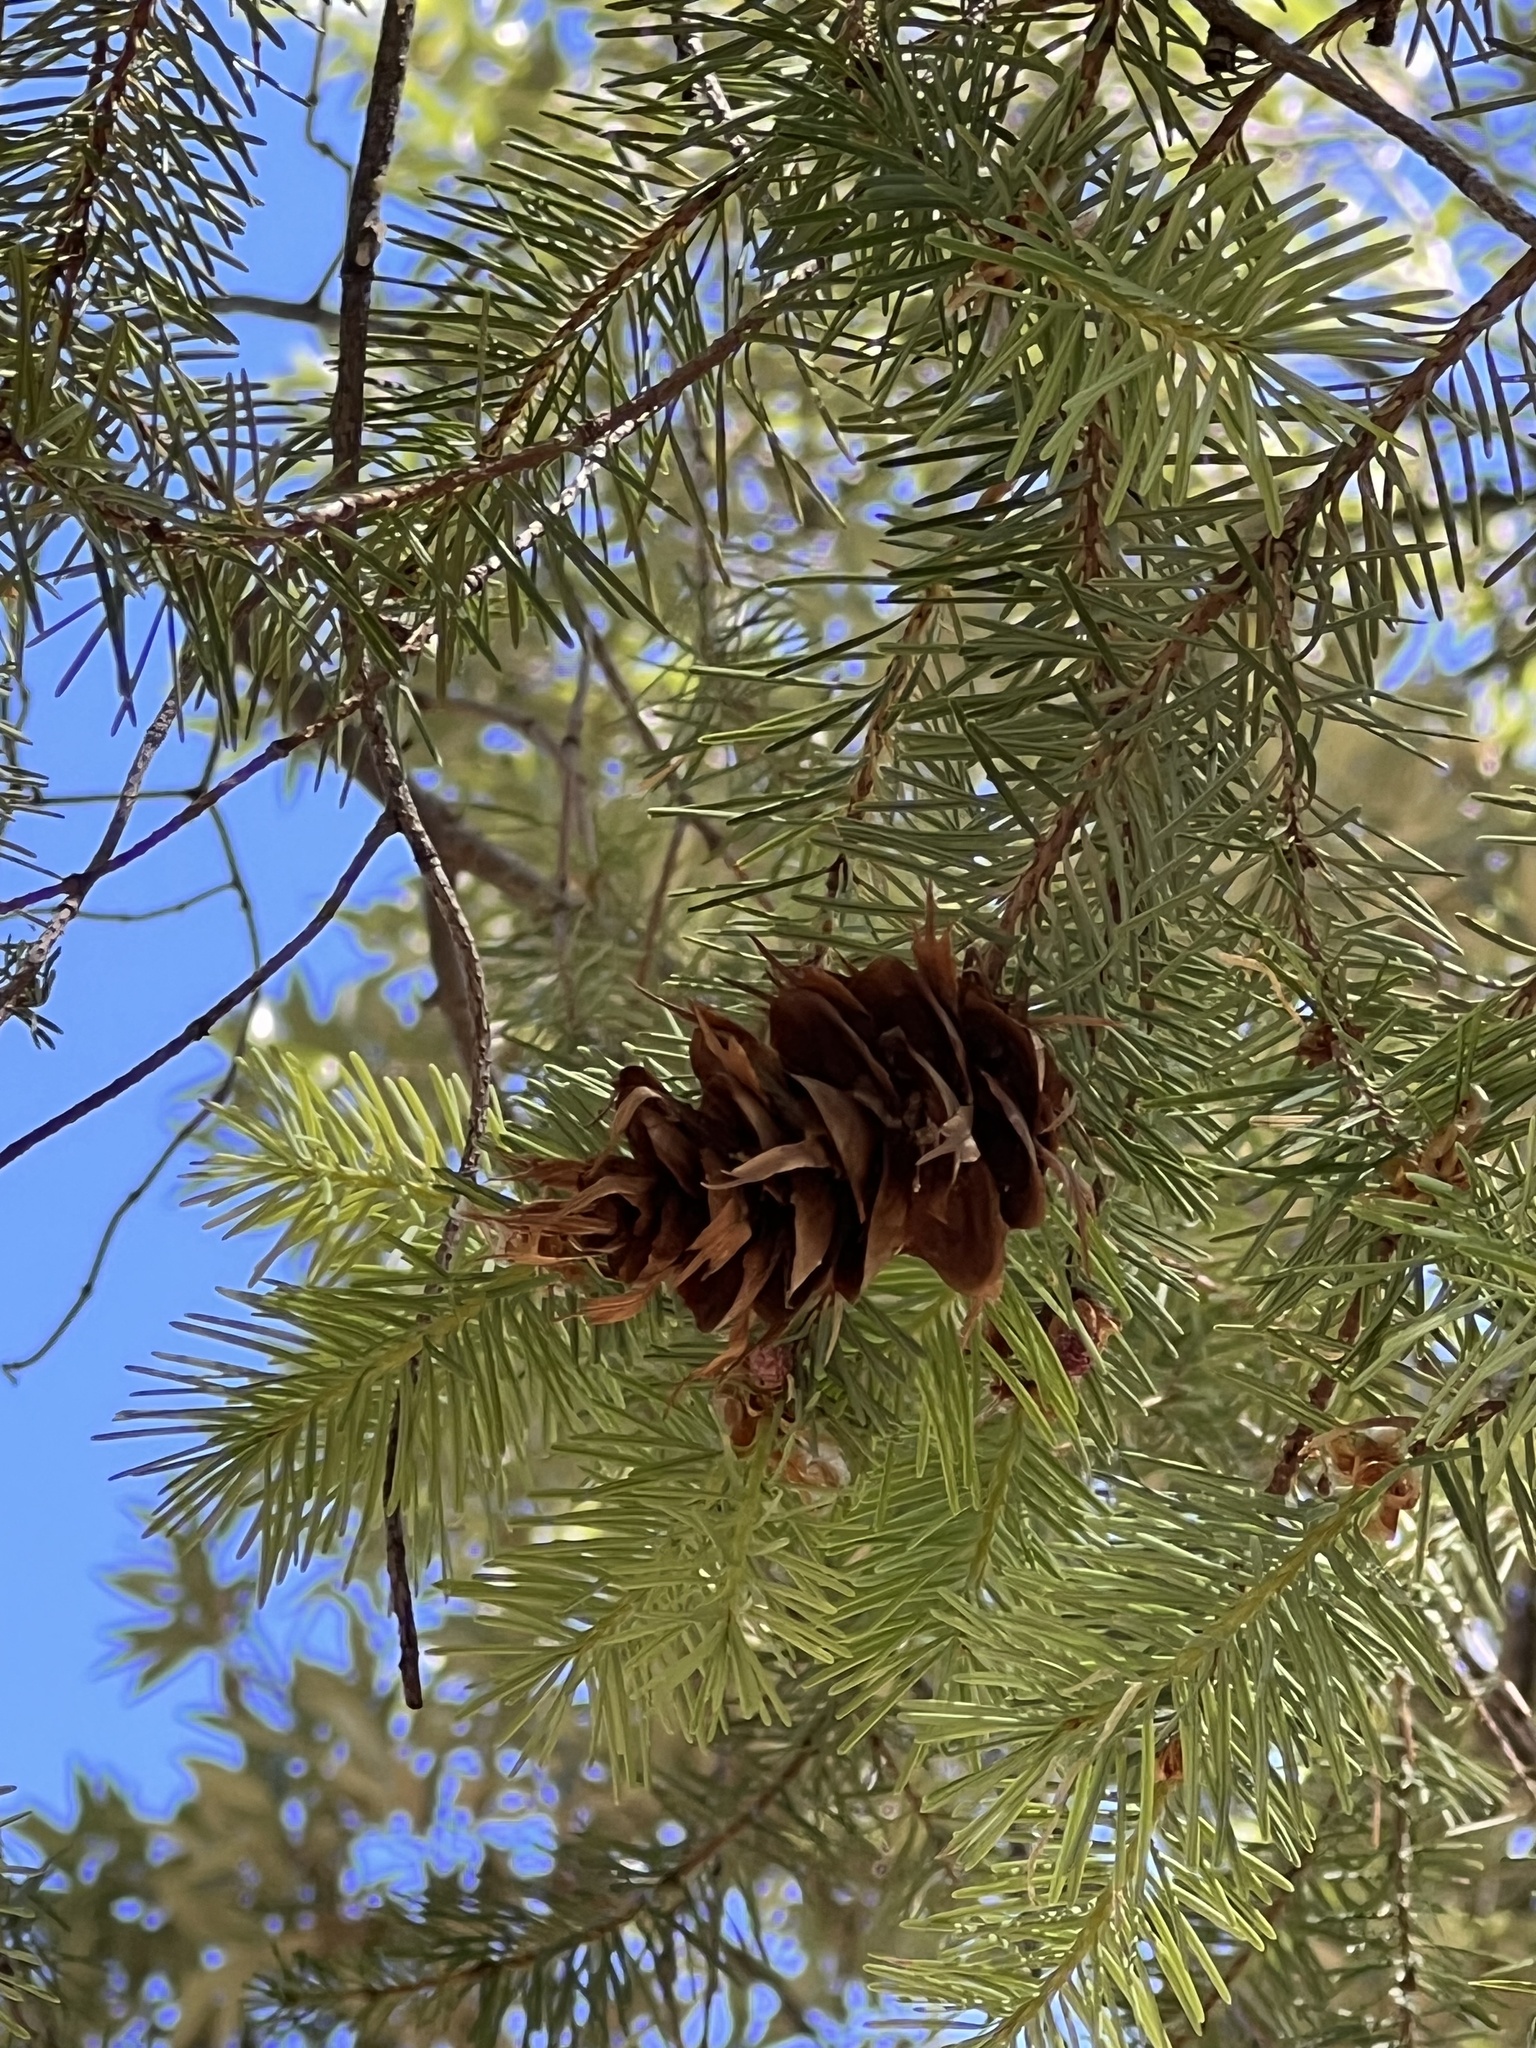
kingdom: Plantae
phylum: Tracheophyta
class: Pinopsida
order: Pinales
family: Pinaceae
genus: Pseudotsuga
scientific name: Pseudotsuga menziesii
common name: Douglas fir
